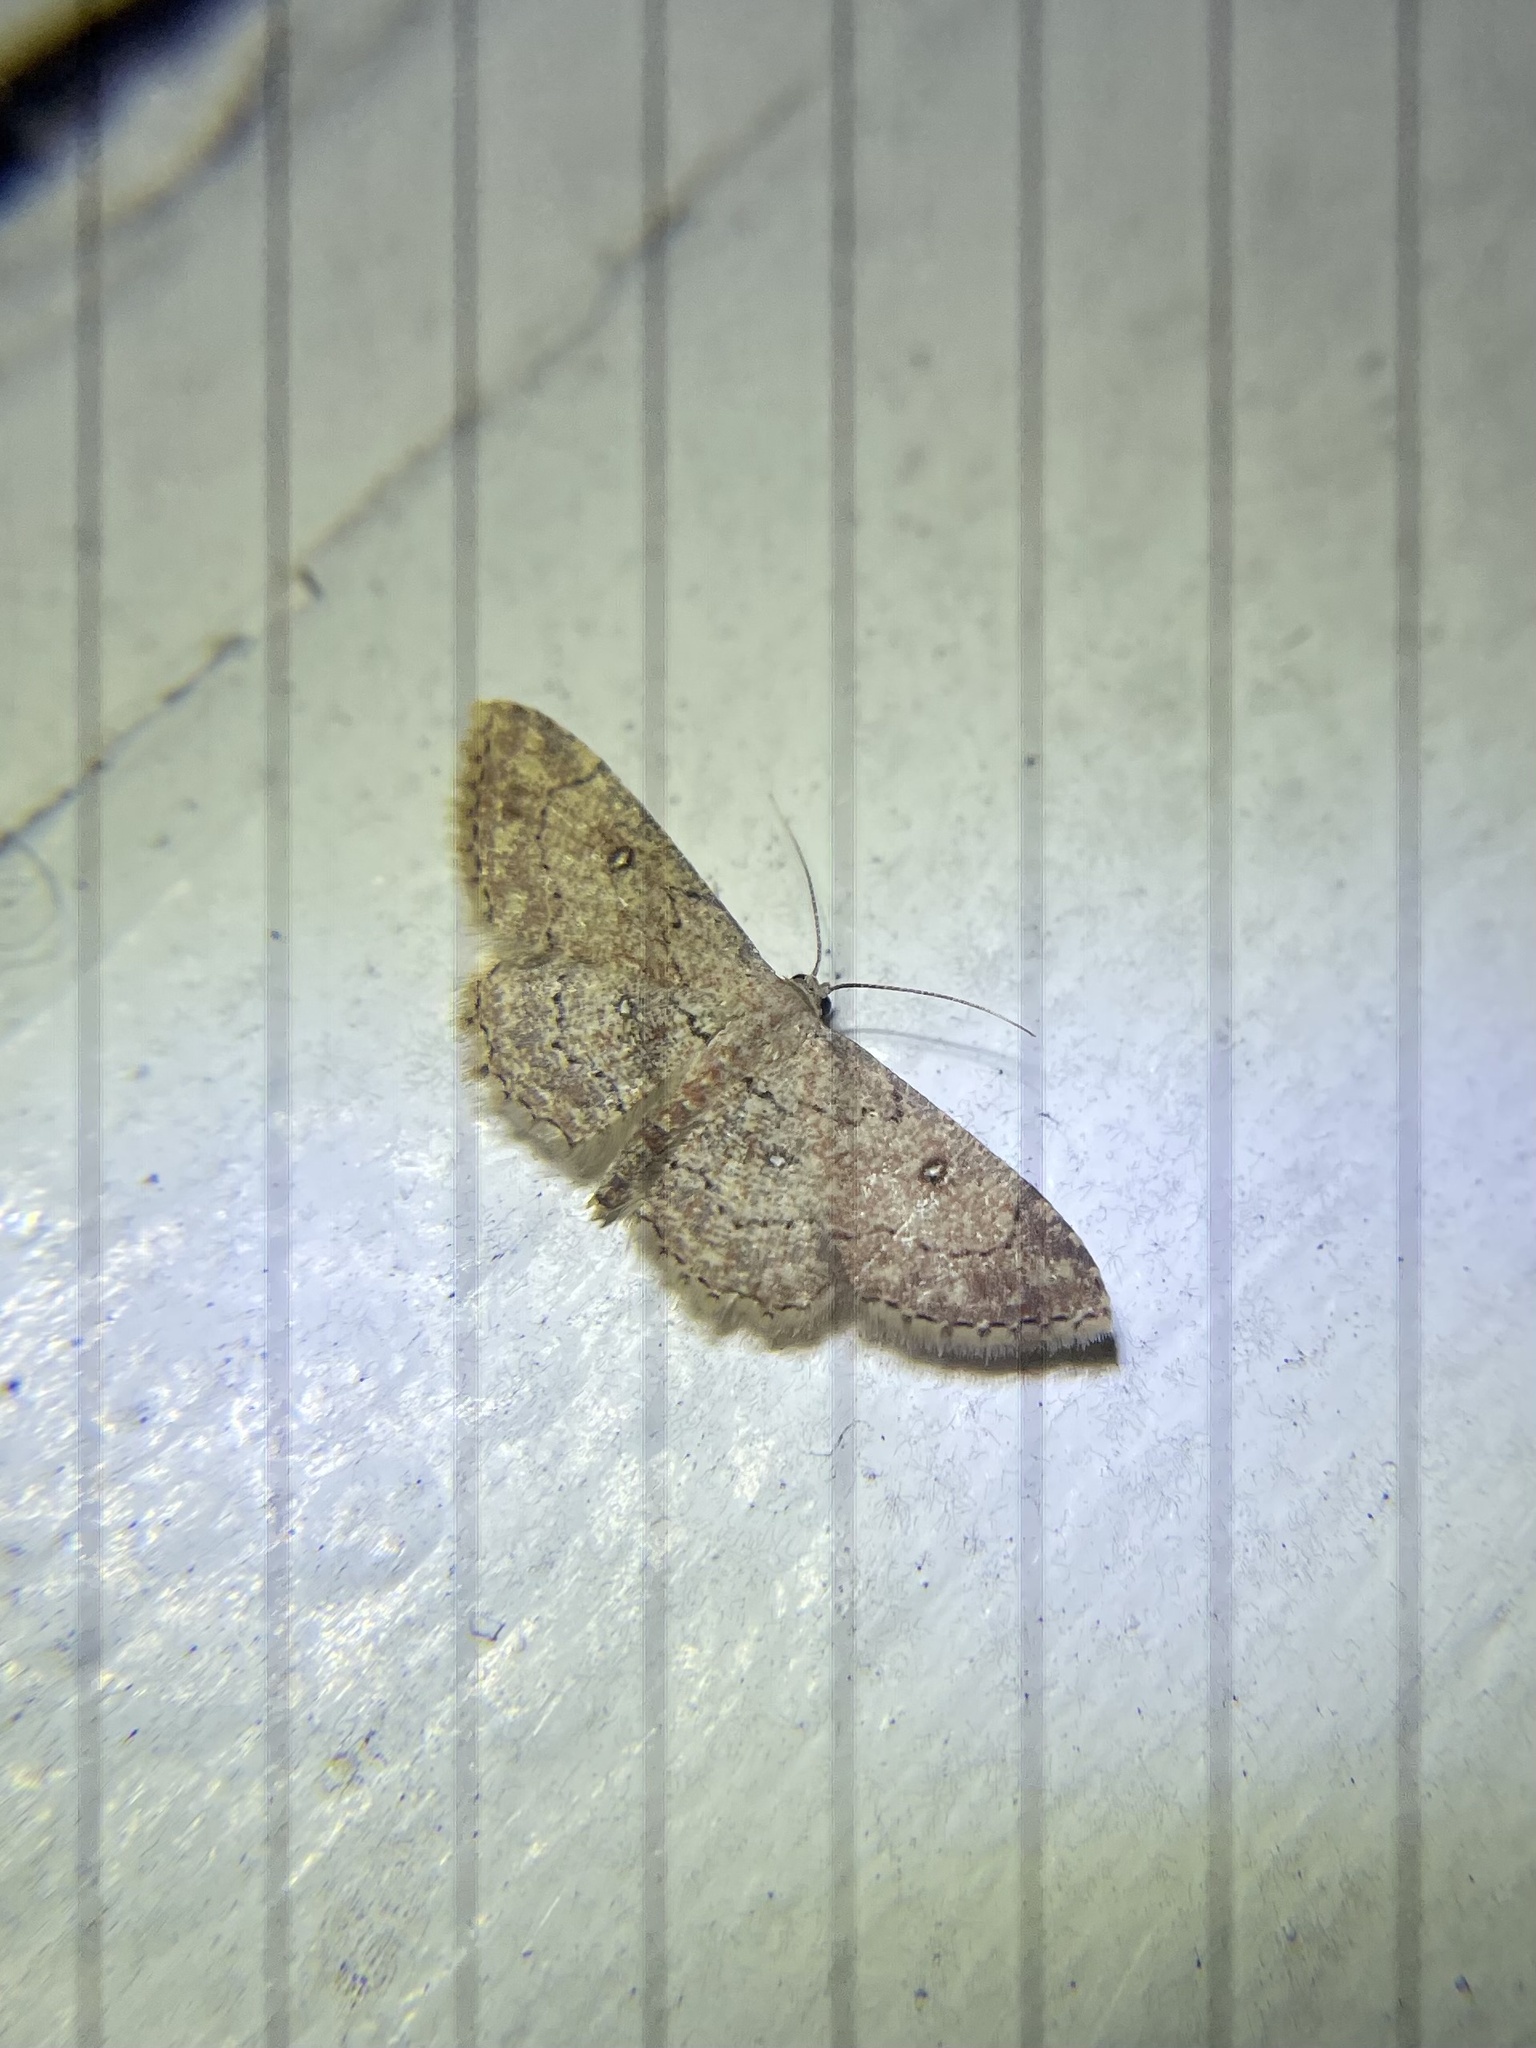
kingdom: Animalia
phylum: Arthropoda
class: Insecta
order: Lepidoptera
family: Geometridae
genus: Cyclophora
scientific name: Cyclophora nanaria
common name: Cankerworm
